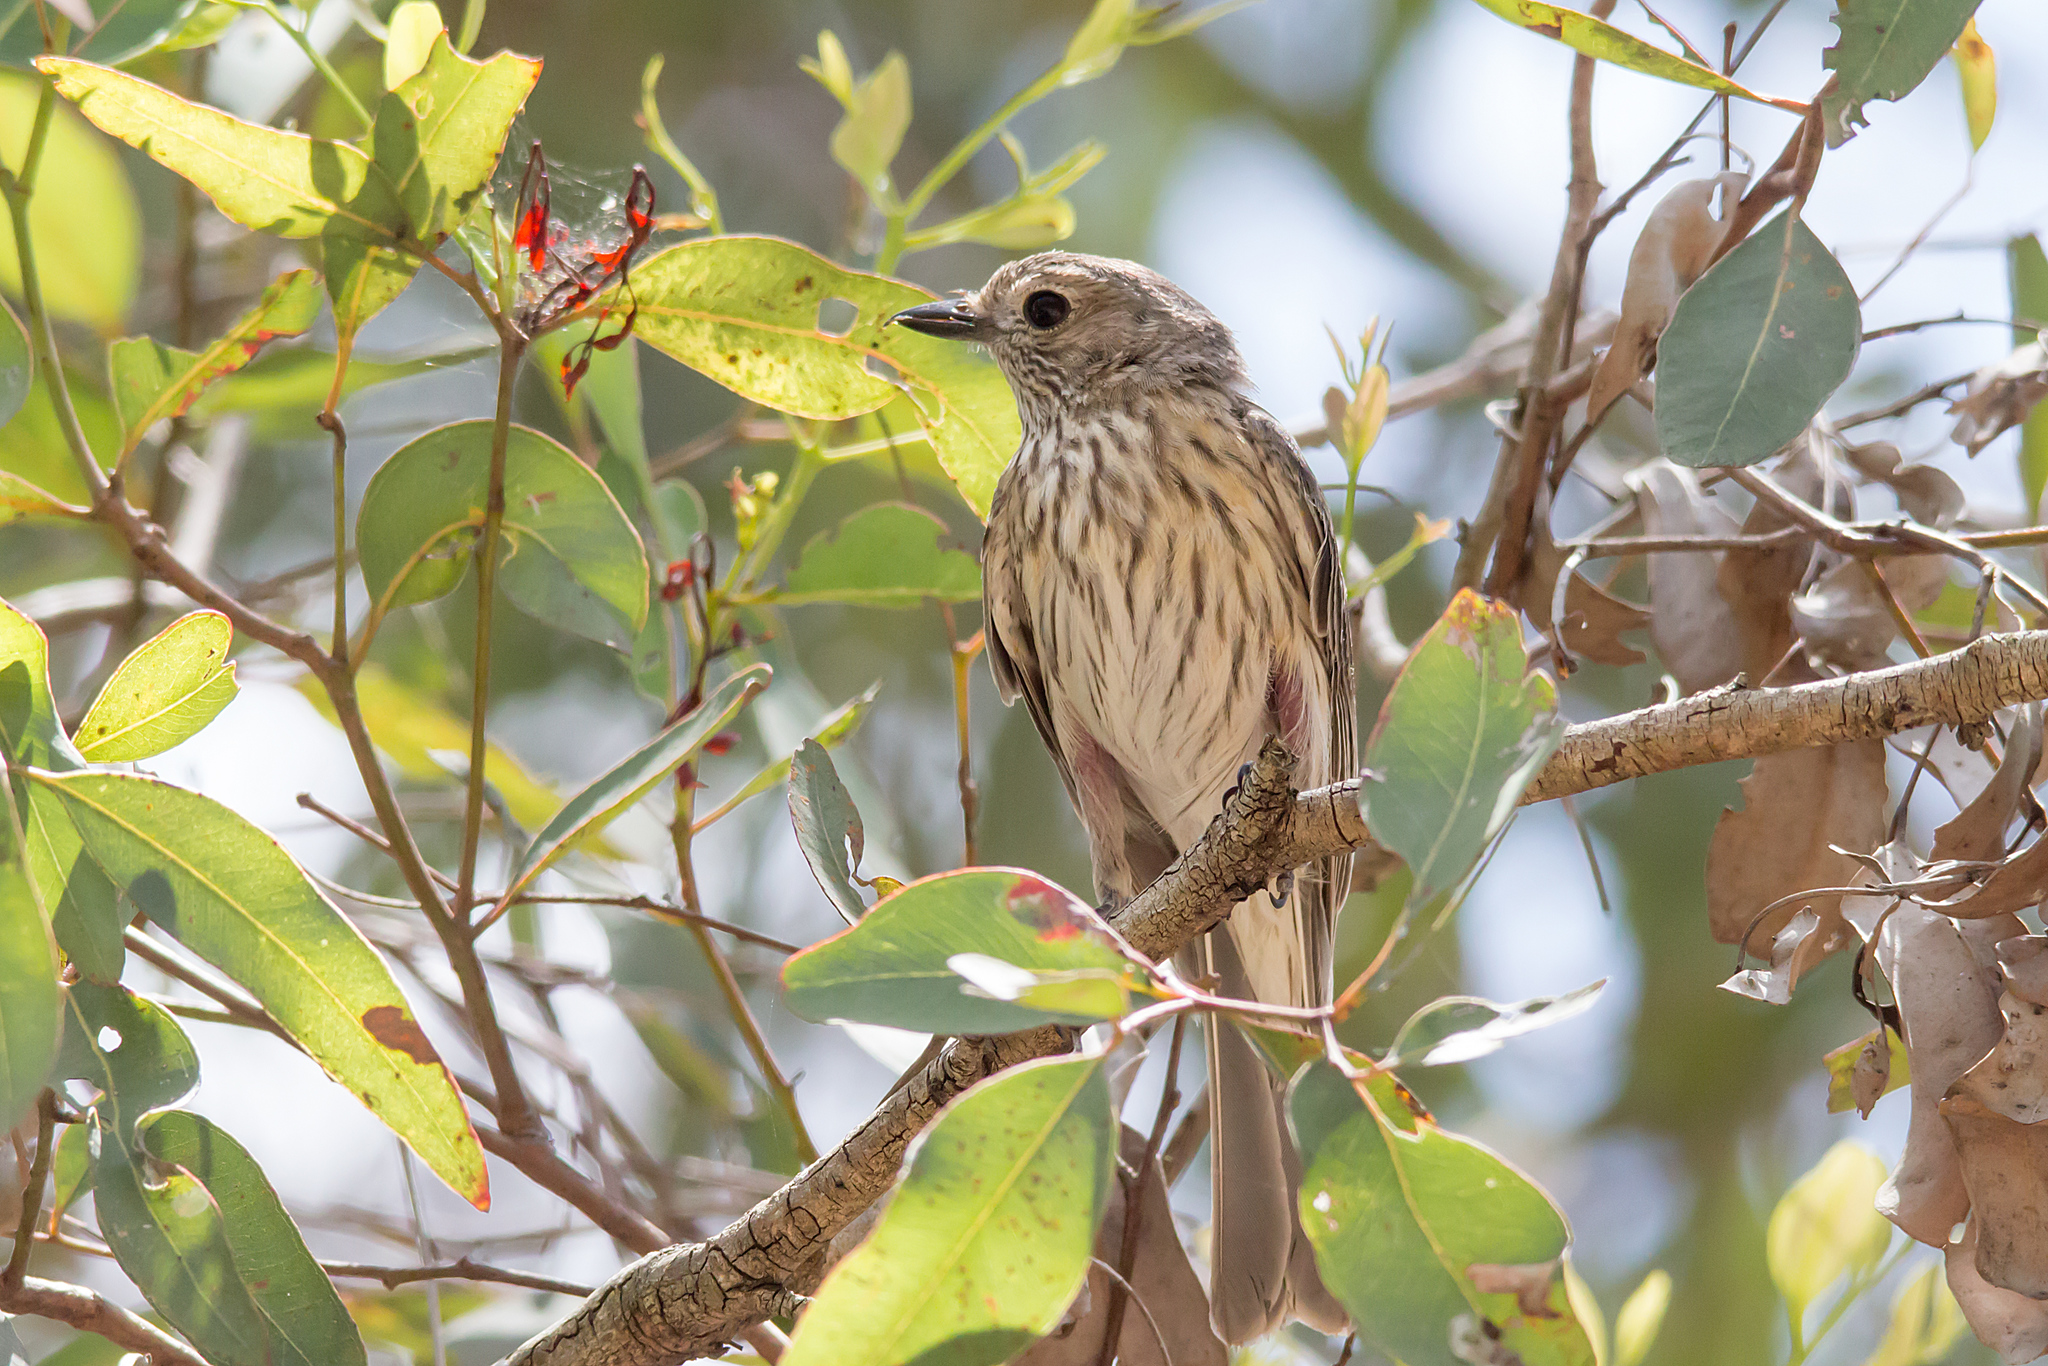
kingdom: Animalia
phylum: Chordata
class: Aves
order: Passeriformes
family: Pachycephalidae
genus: Pachycephala
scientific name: Pachycephala rufiventris
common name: Rufous whistler
